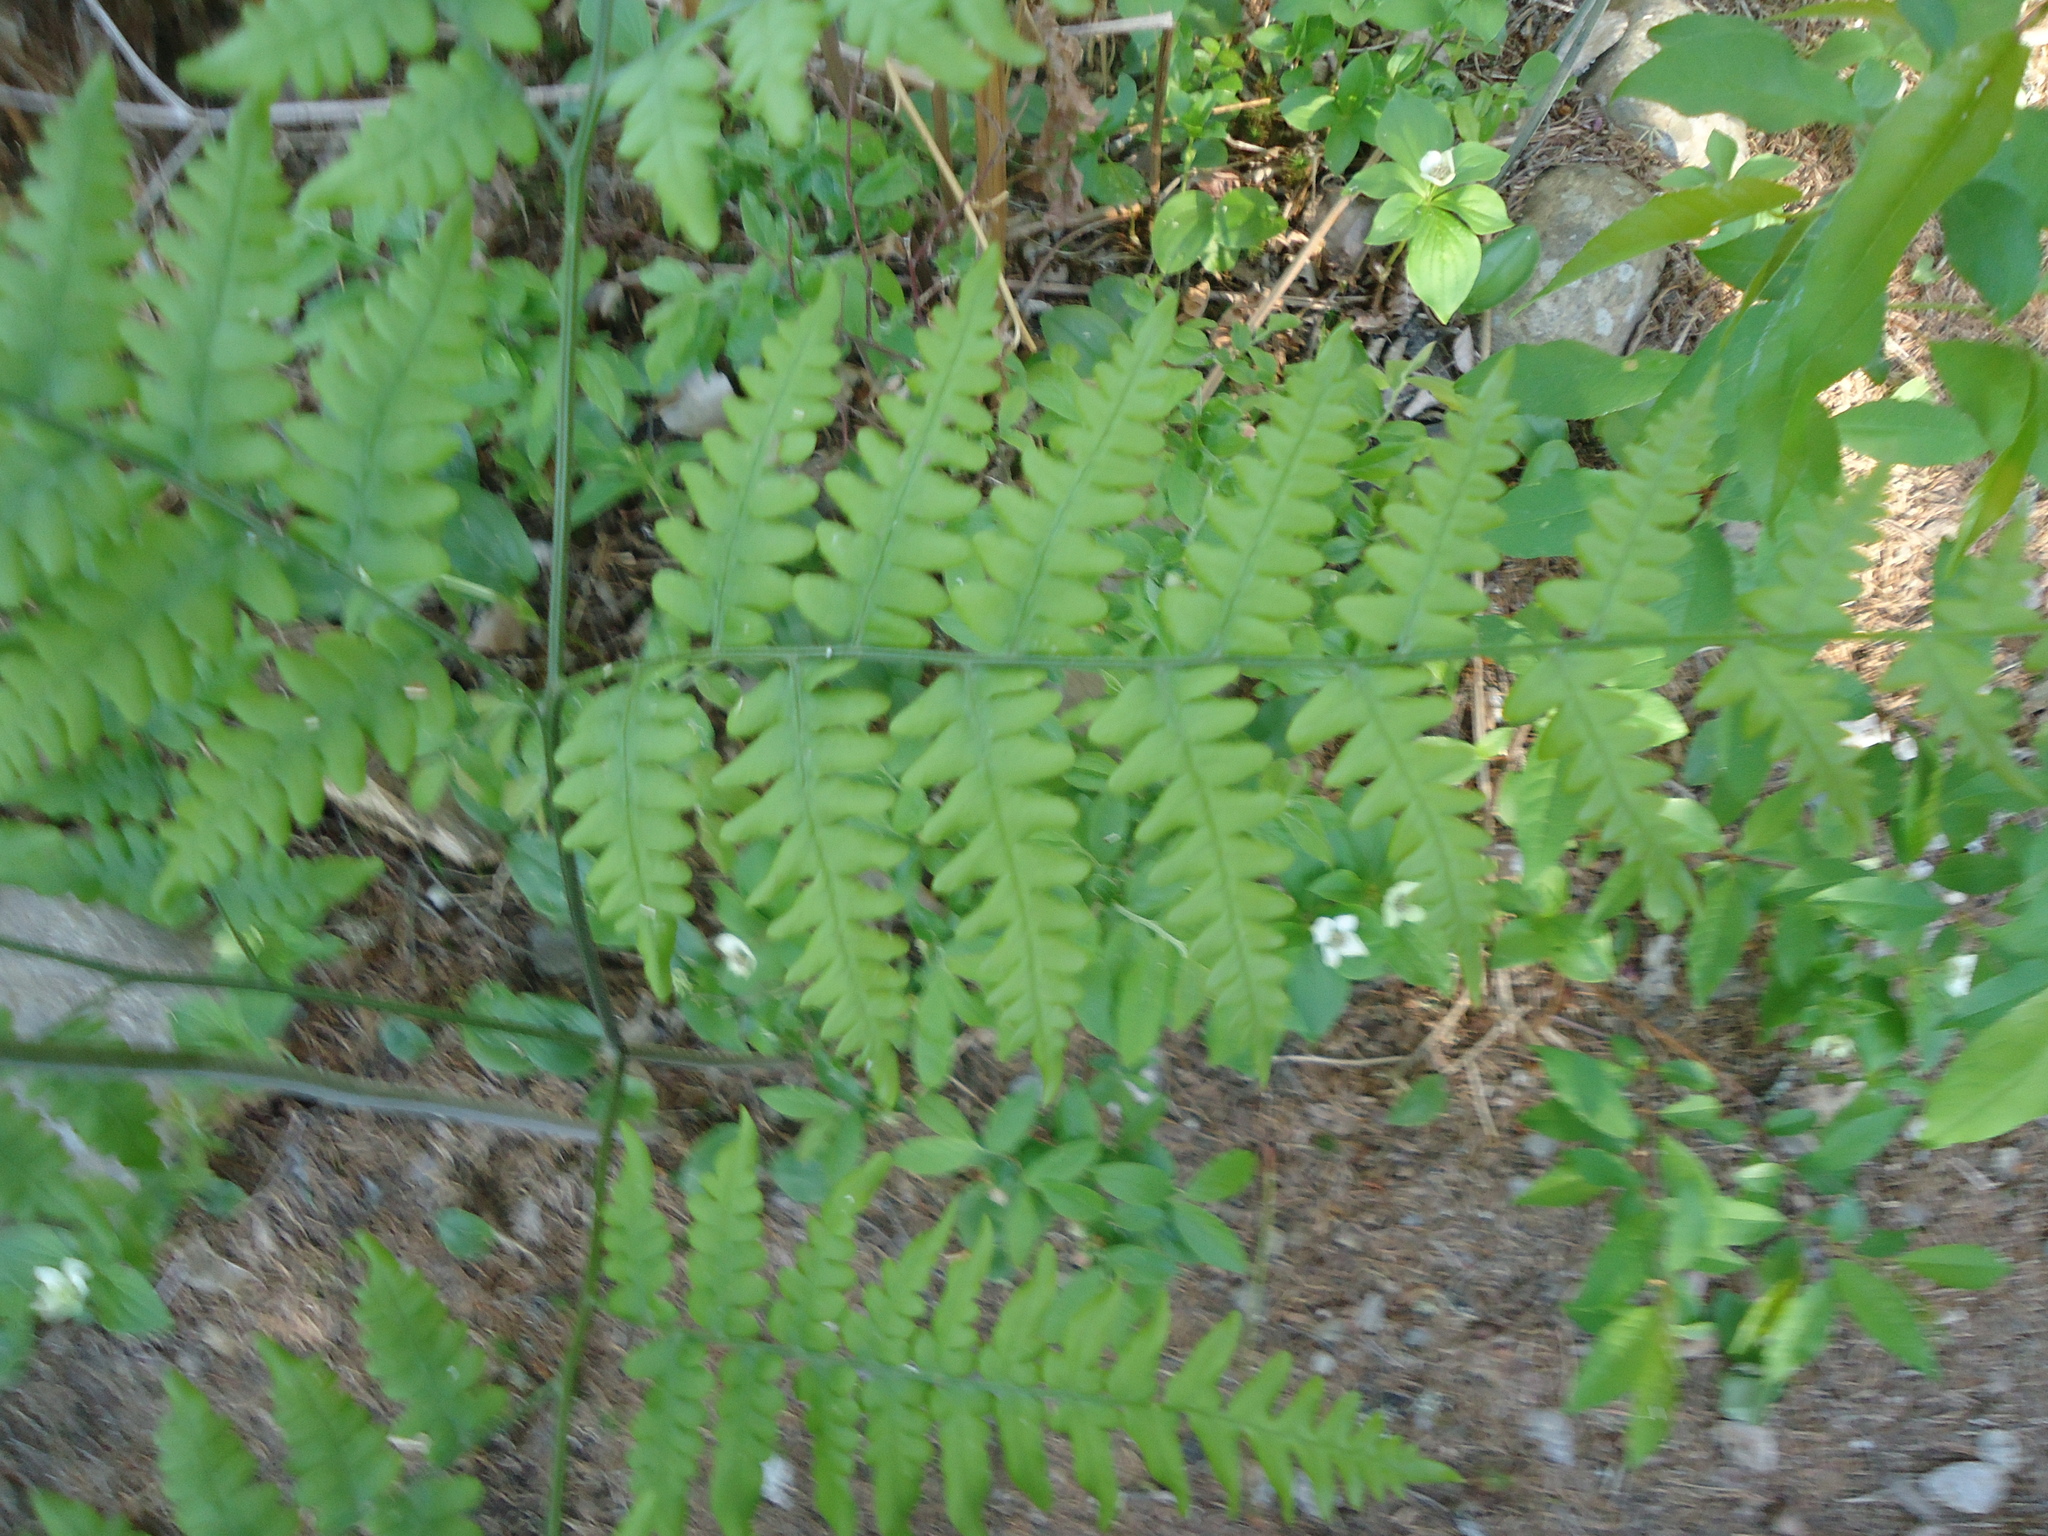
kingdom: Plantae
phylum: Tracheophyta
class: Polypodiopsida
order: Polypodiales
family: Dennstaedtiaceae
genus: Pteridium
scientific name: Pteridium aquilinum
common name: Bracken
